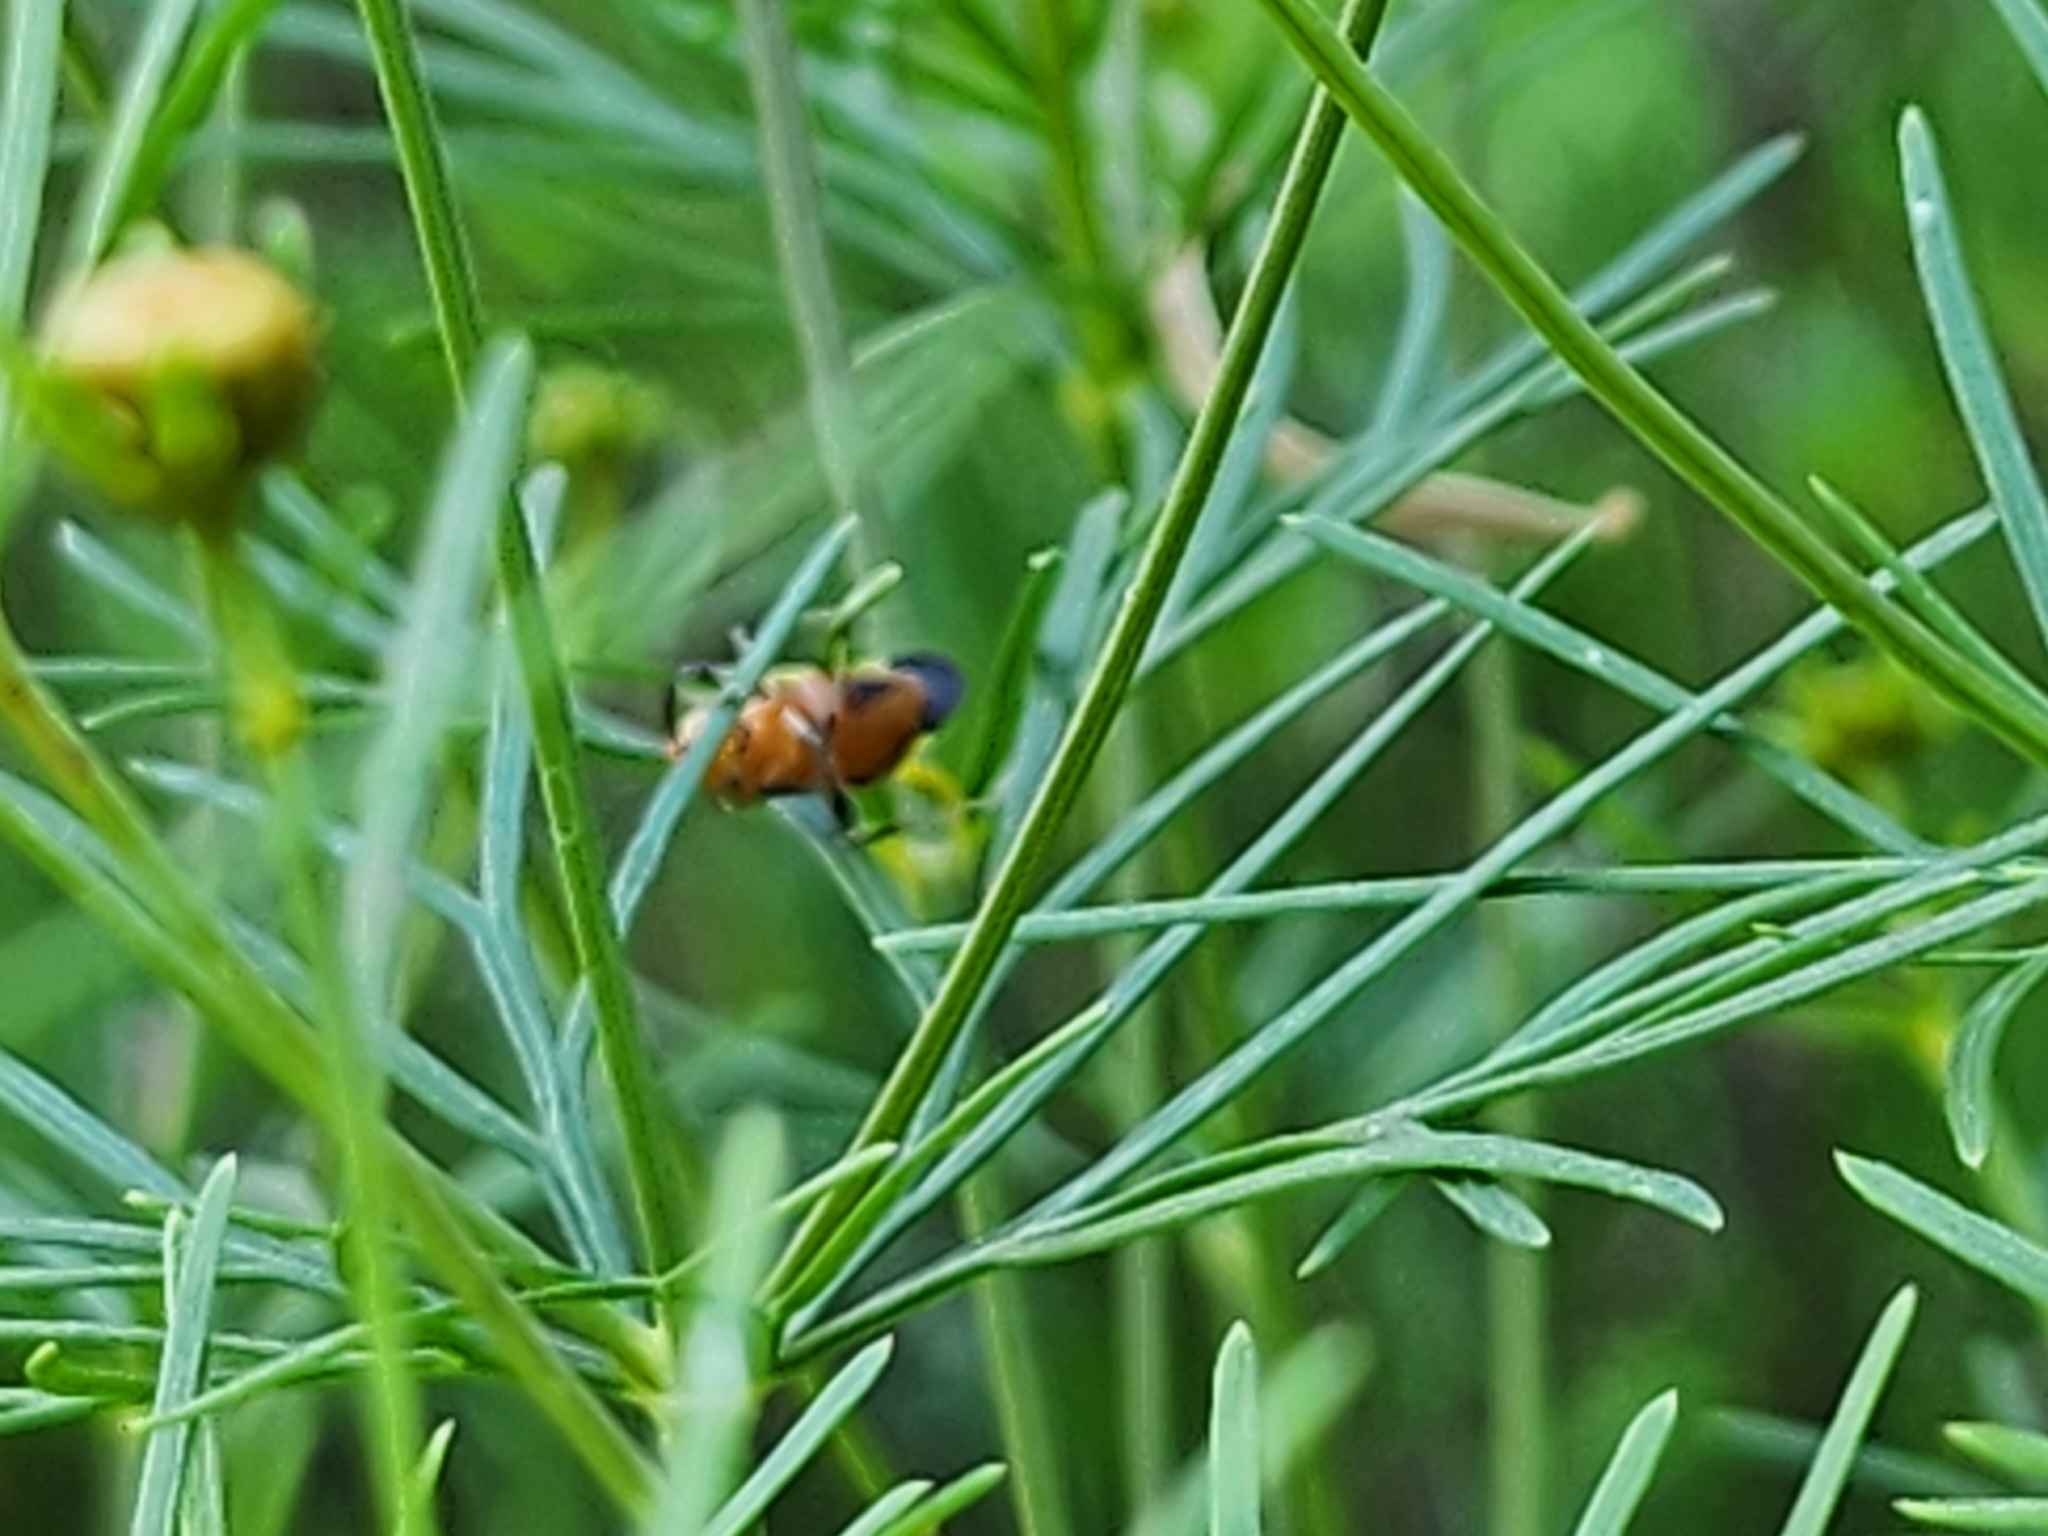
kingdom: Animalia
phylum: Arthropoda
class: Insecta
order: Hemiptera
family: Miridae
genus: Poecilocapsus
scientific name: Poecilocapsus lineatus
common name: Four-lined plant bug
